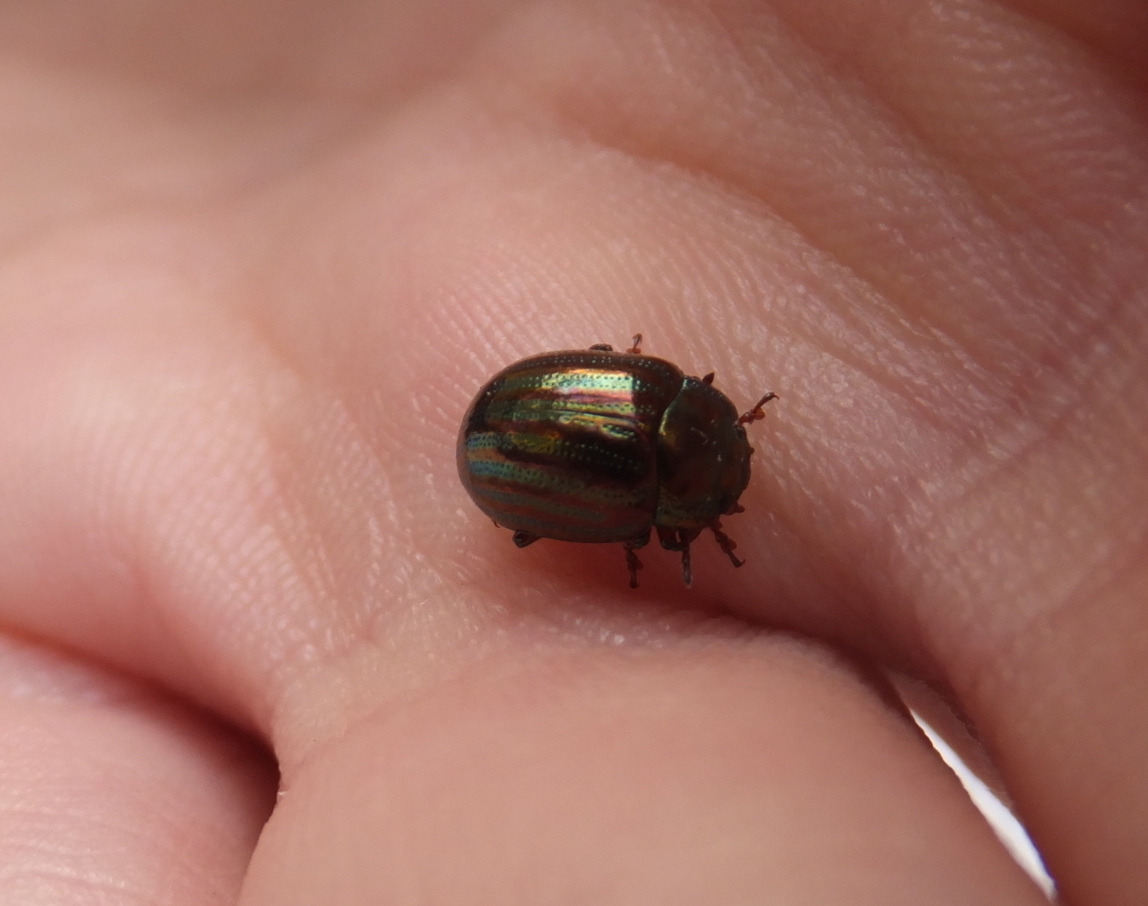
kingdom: Animalia
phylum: Arthropoda
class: Insecta
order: Coleoptera
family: Chrysomelidae
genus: Chrysolina
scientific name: Chrysolina americana
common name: Rosemary beetle
